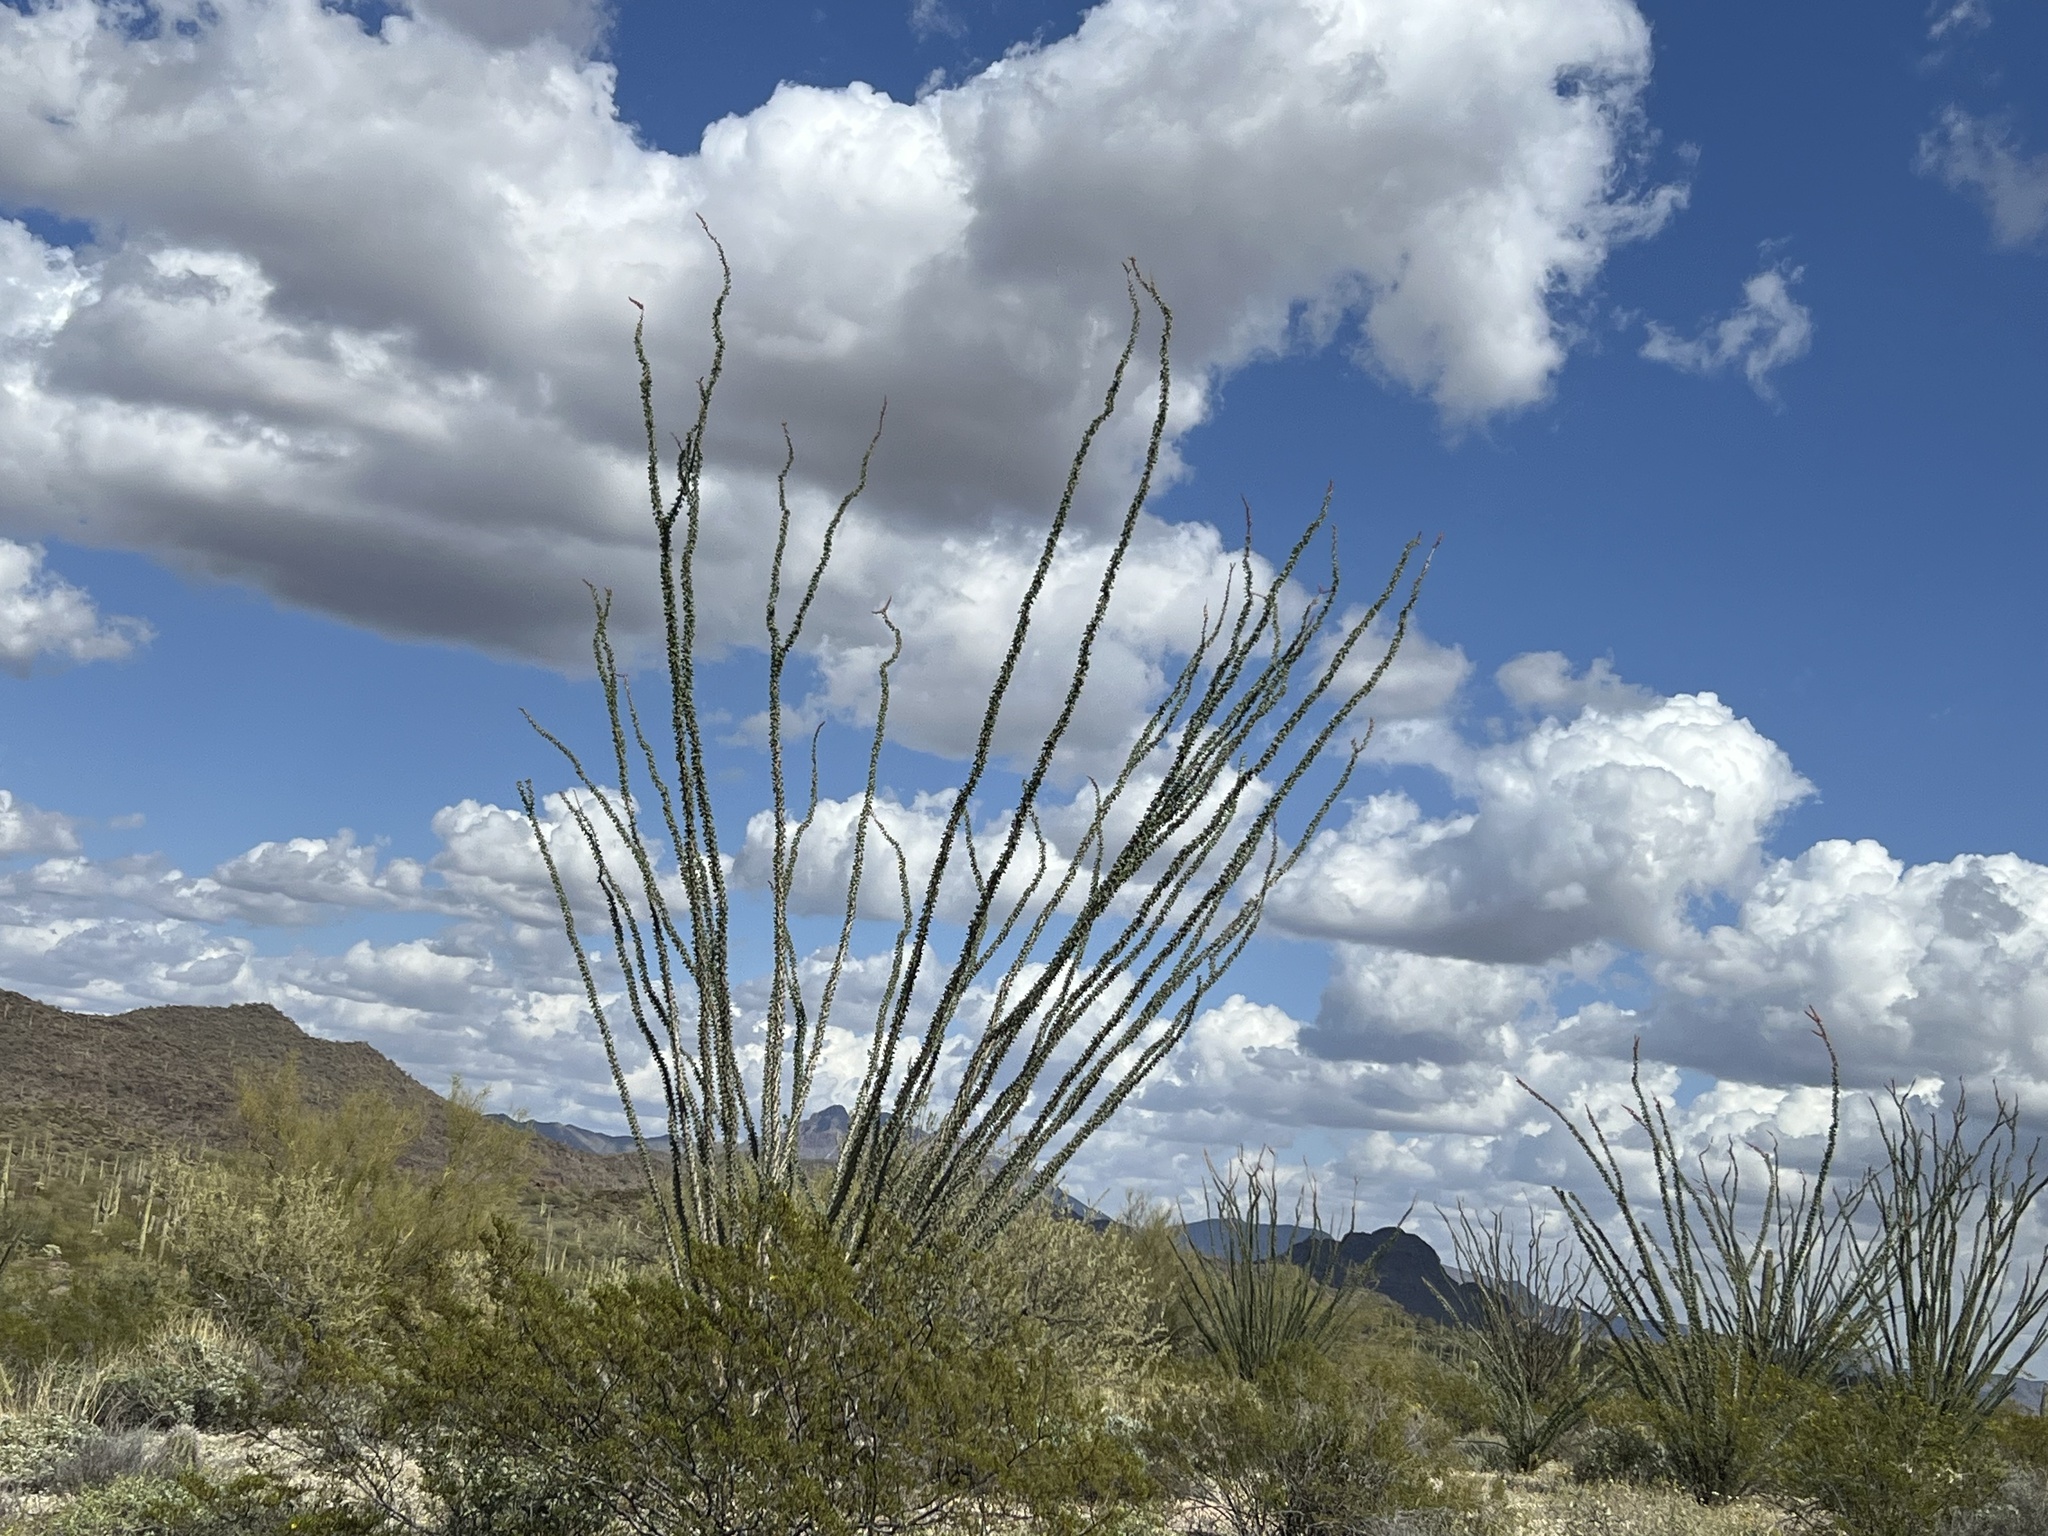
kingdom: Plantae
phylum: Tracheophyta
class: Magnoliopsida
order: Ericales
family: Fouquieriaceae
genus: Fouquieria
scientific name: Fouquieria splendens
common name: Vine-cactus
